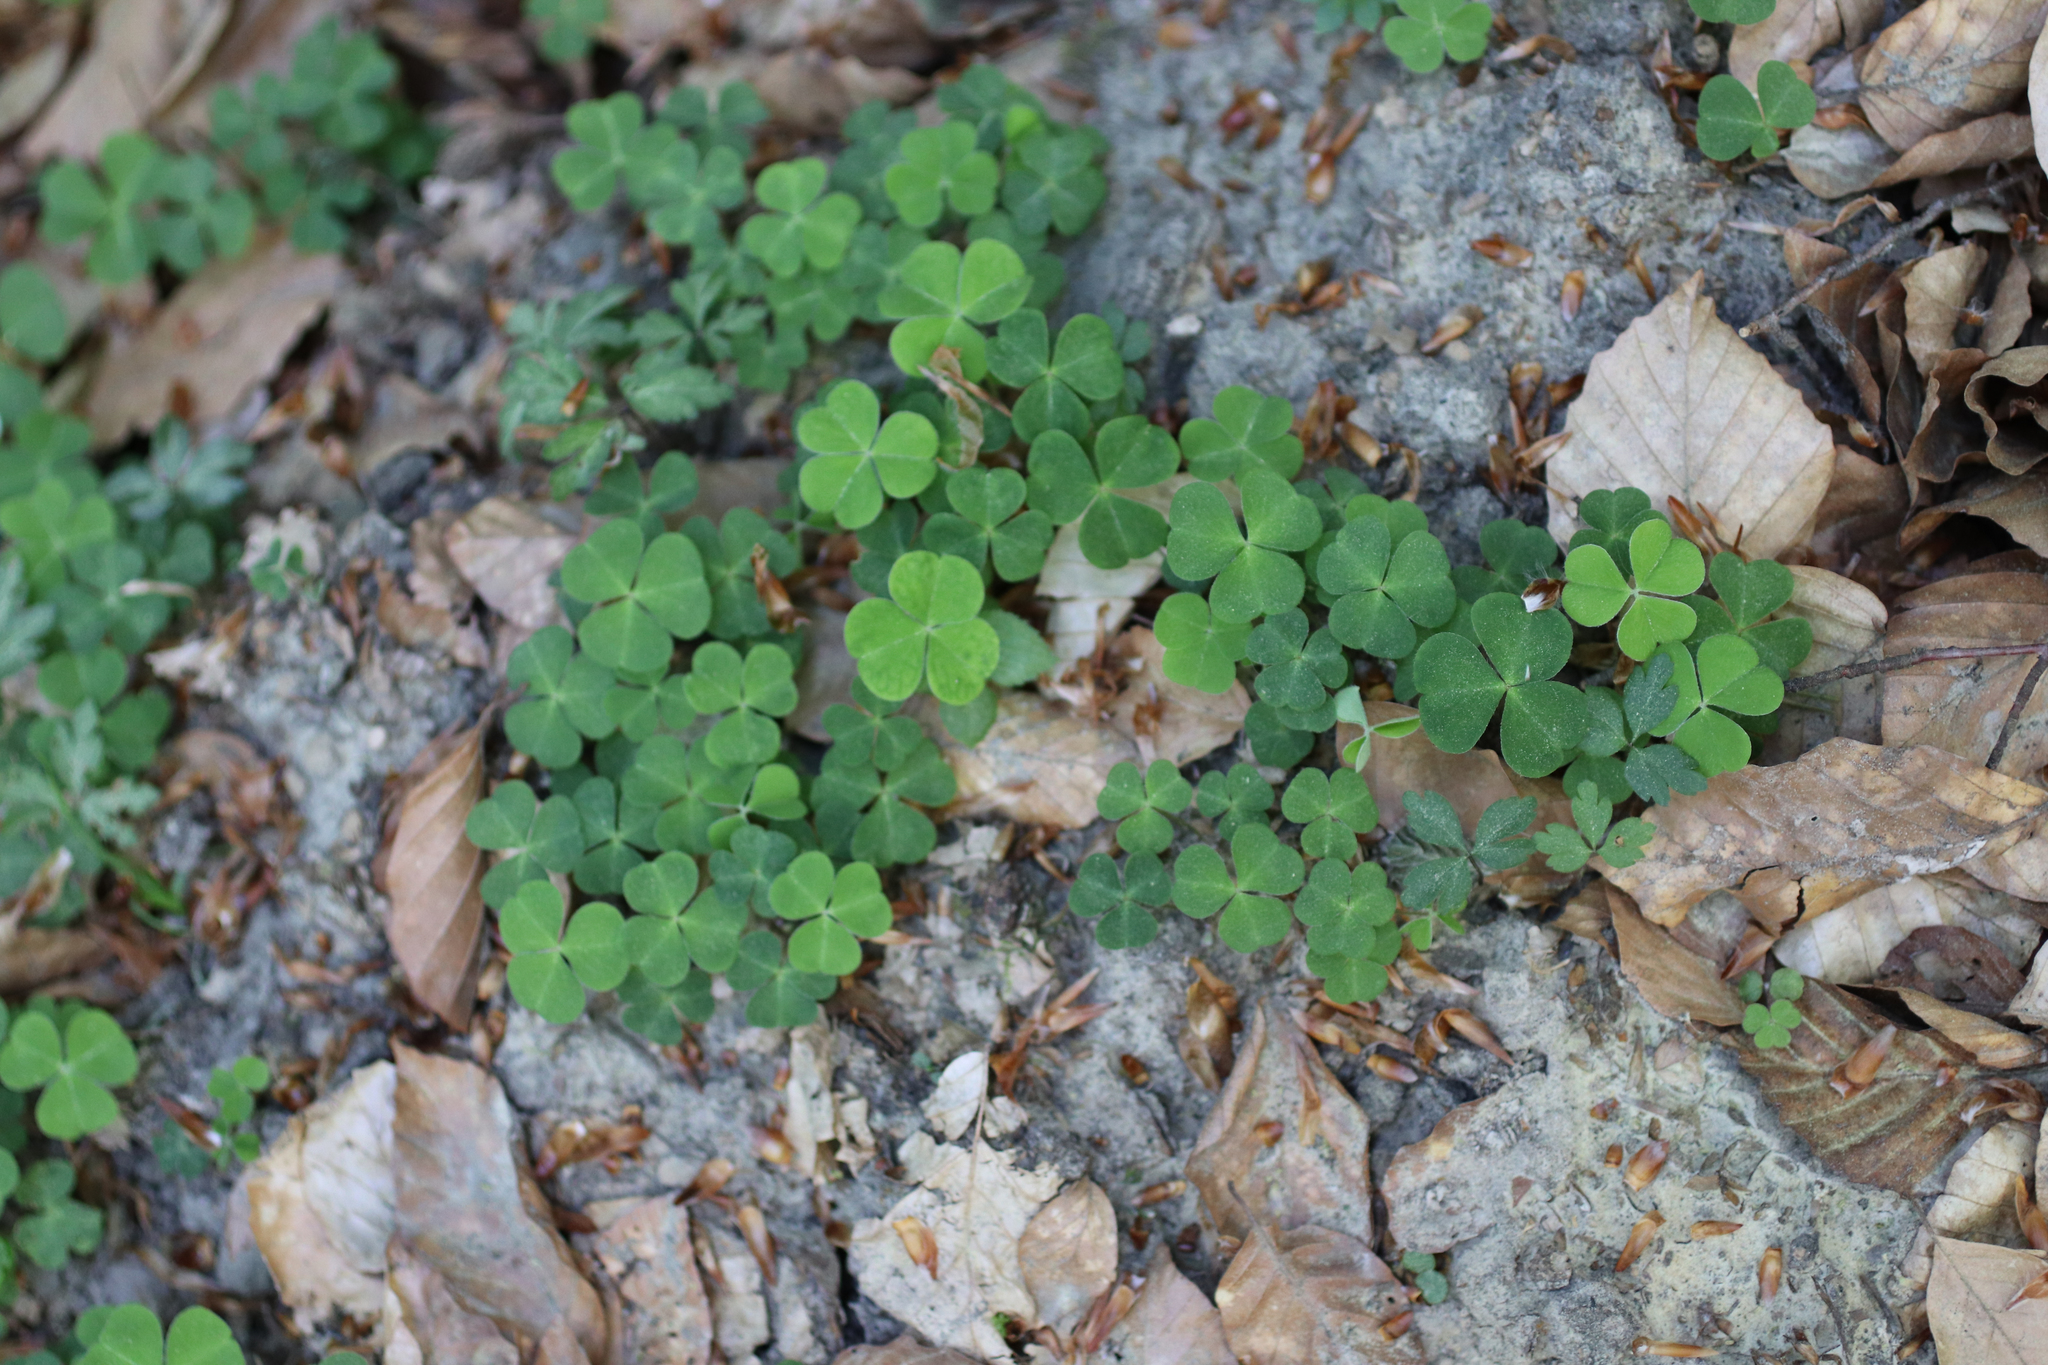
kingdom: Plantae
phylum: Tracheophyta
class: Magnoliopsida
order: Oxalidales
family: Oxalidaceae
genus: Oxalis
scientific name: Oxalis acetosella
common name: Wood-sorrel
